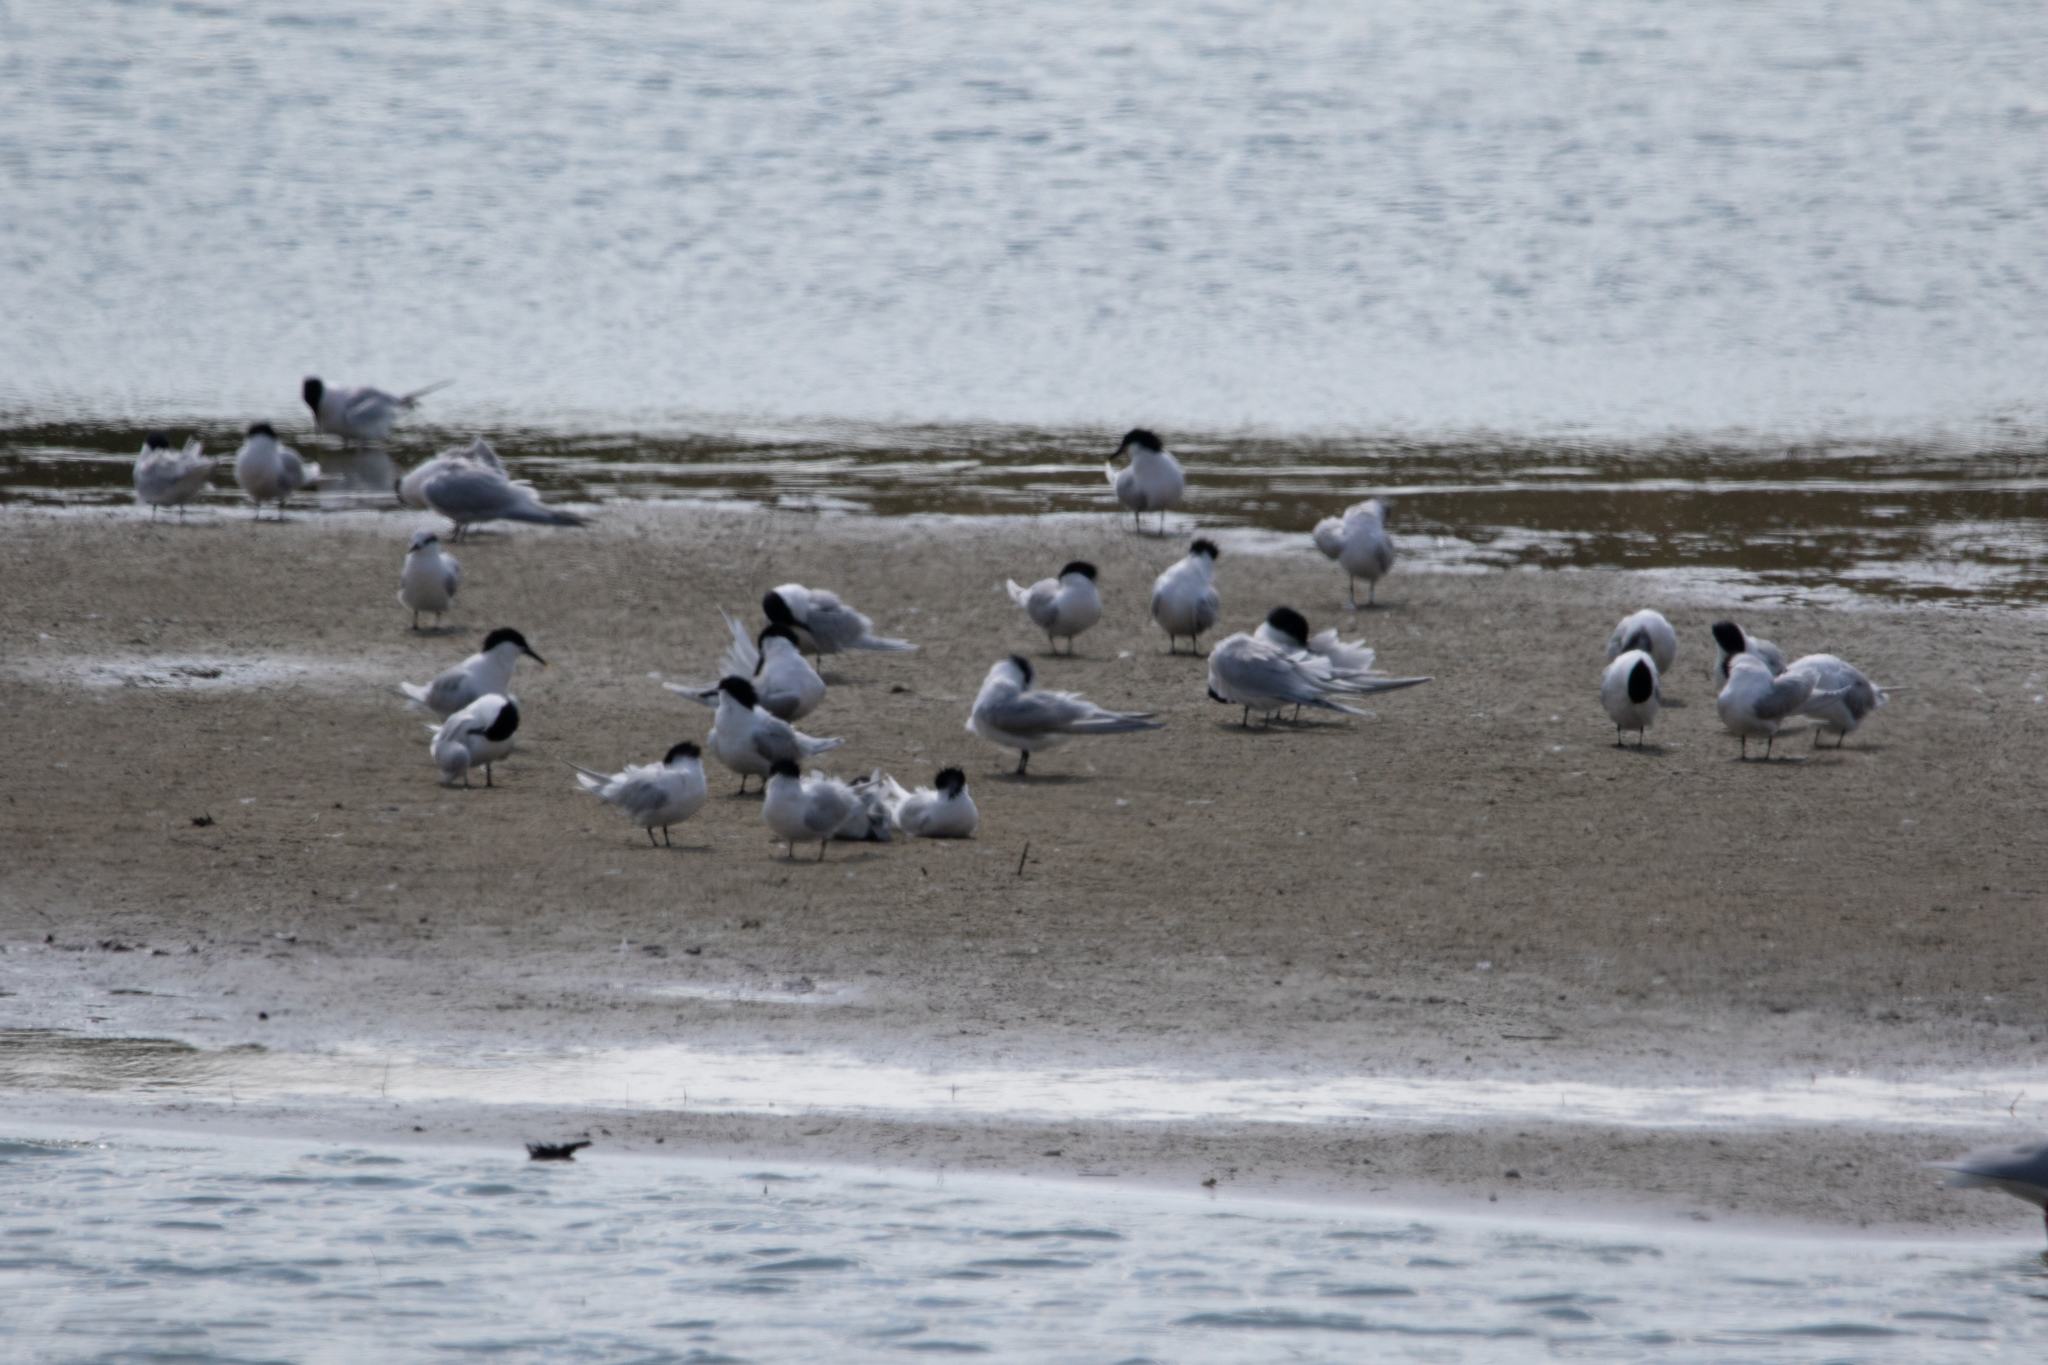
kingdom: Animalia
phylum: Chordata
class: Aves
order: Charadriiformes
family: Laridae
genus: Thalasseus
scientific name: Thalasseus sandvicensis
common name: Sandwich tern
